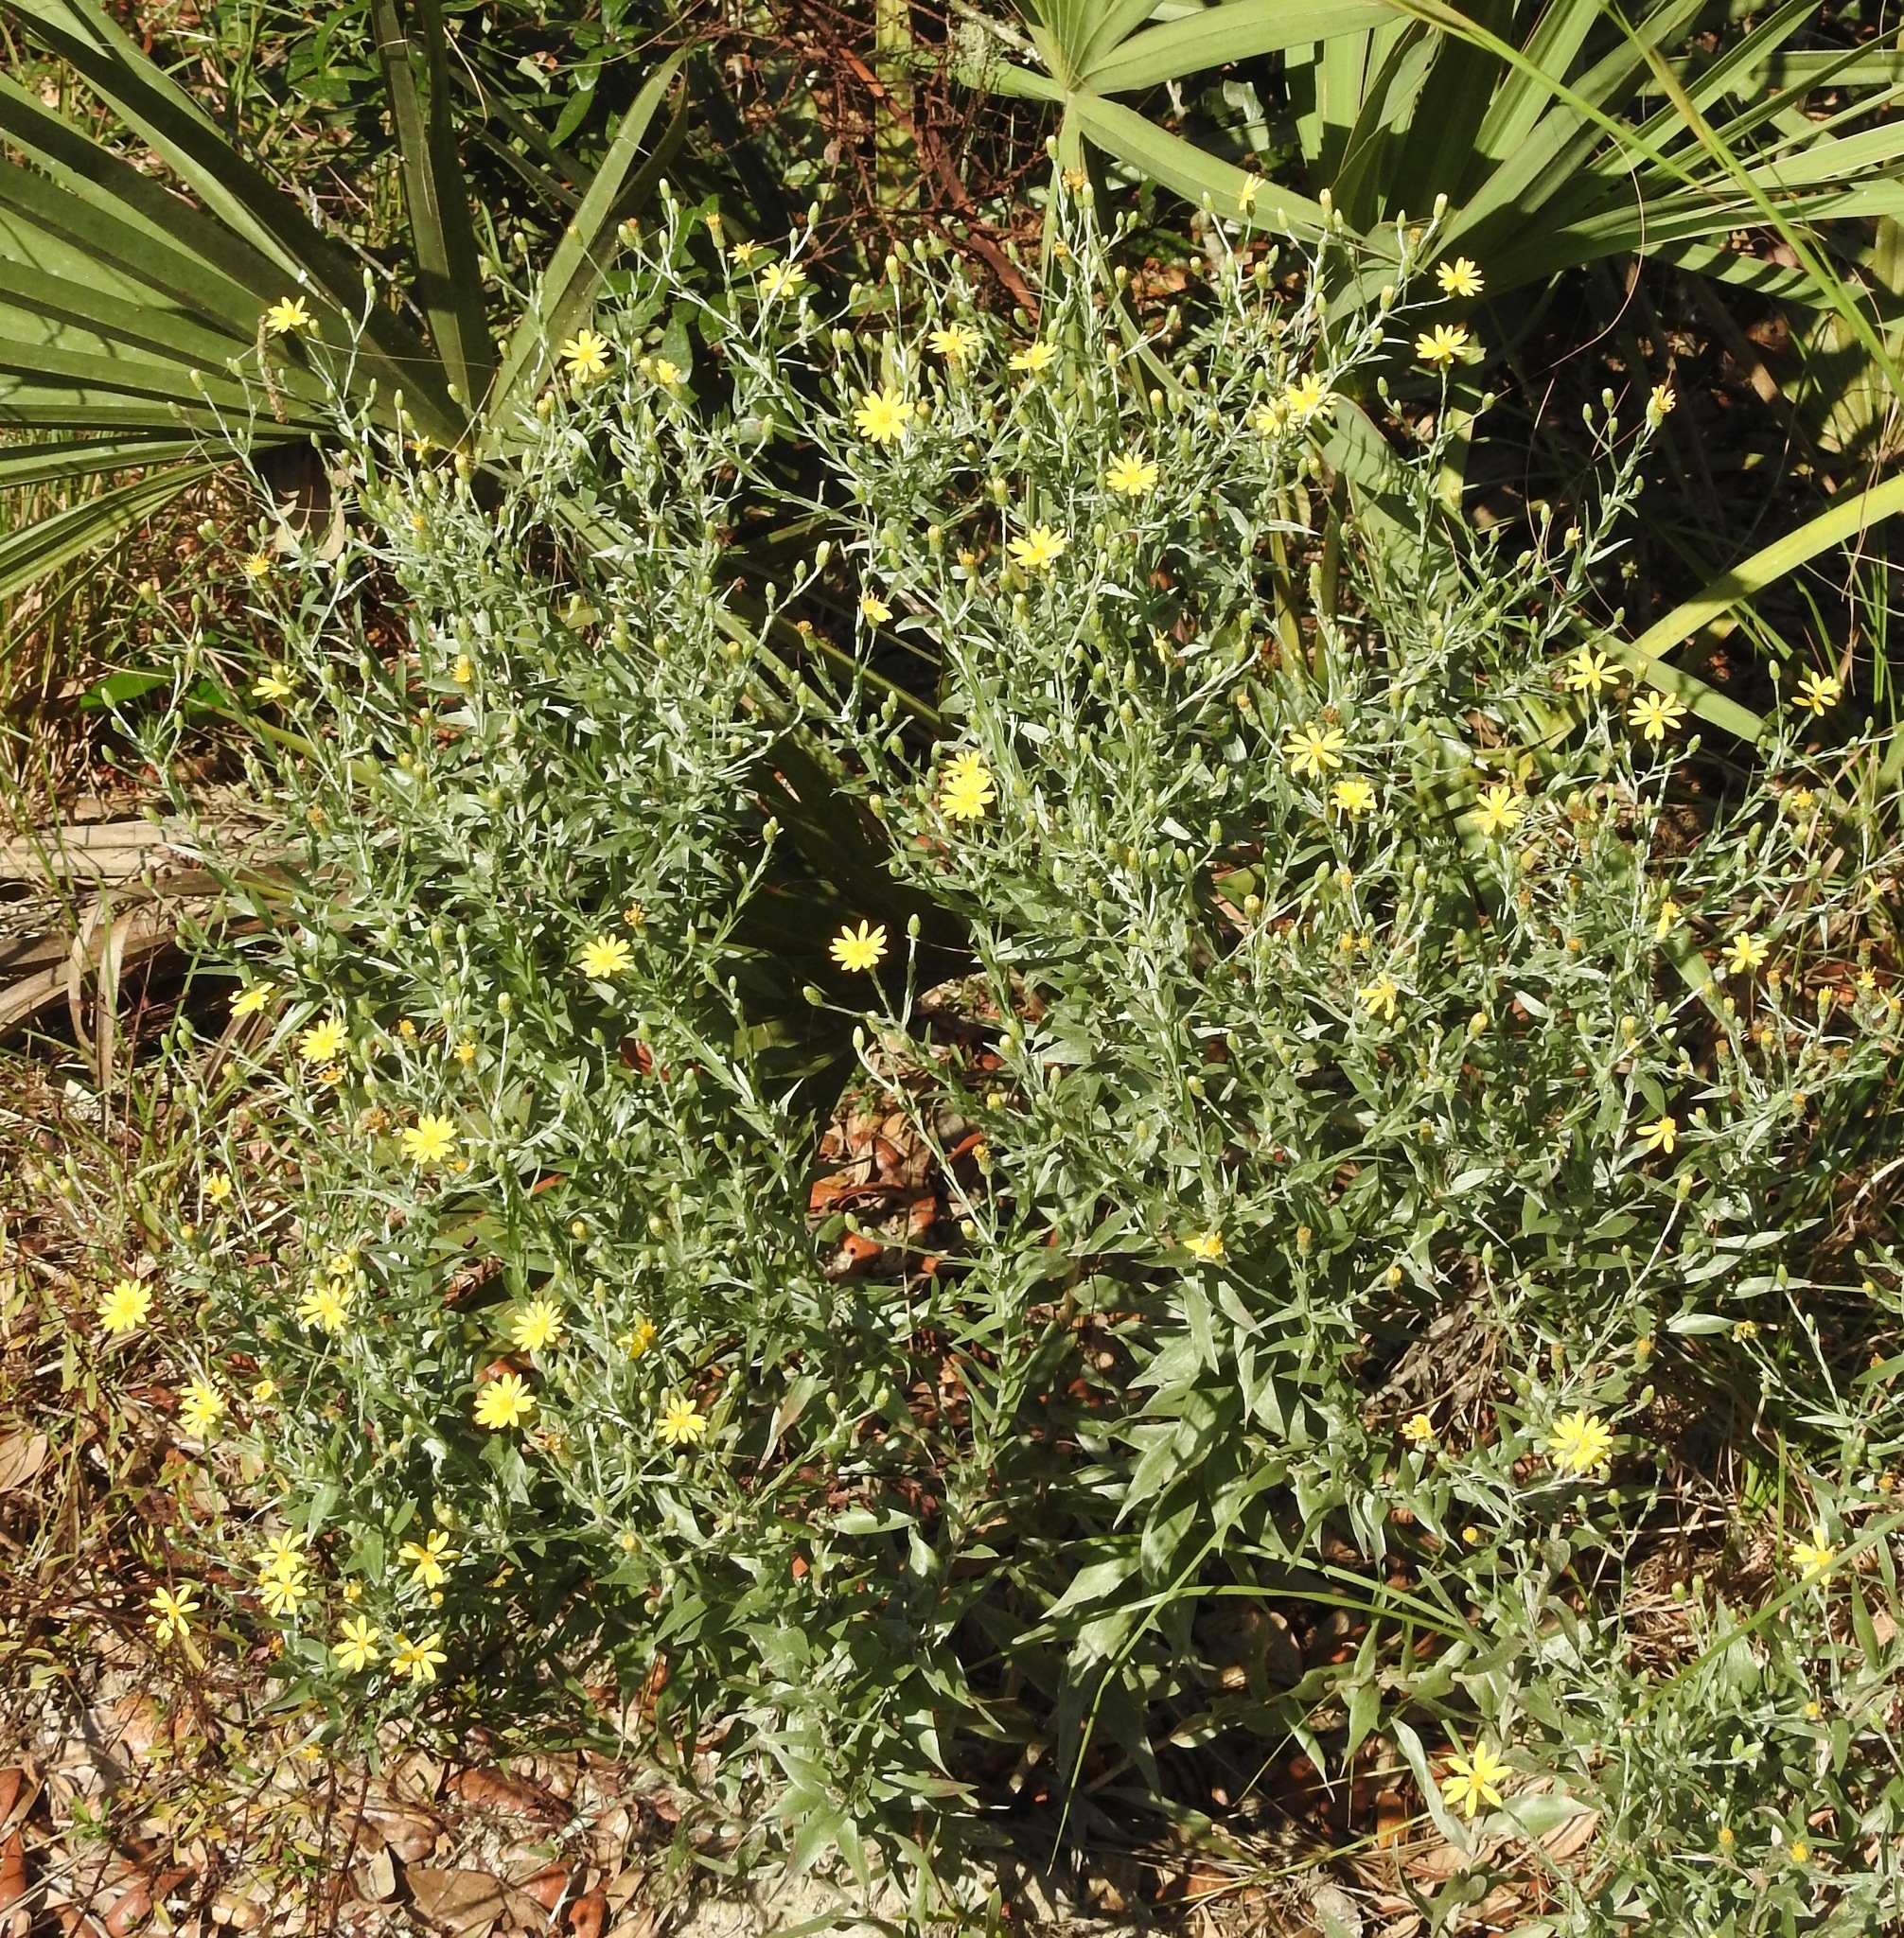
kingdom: Plantae
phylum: Tracheophyta
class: Magnoliopsida
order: Asterales
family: Asteraceae
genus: Pityopsis
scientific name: Pityopsis graminifolia
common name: Grass-leaf golden-aster
